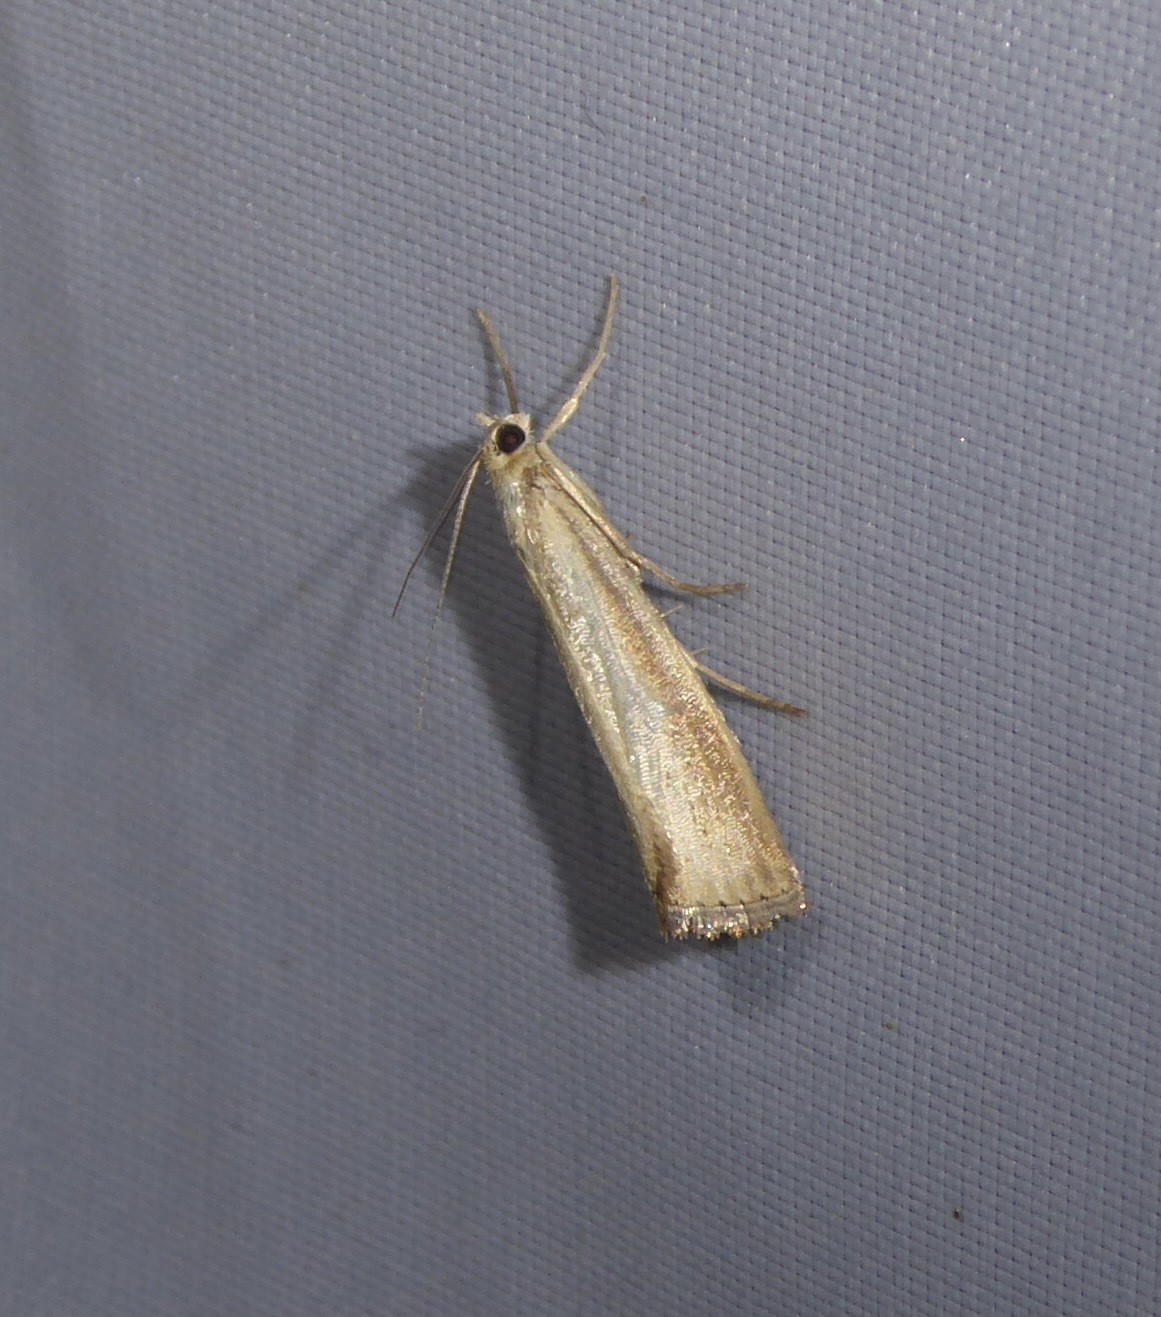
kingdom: Animalia
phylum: Arthropoda
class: Insecta
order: Lepidoptera
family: Crambidae
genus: Agriphila
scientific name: Agriphila straminella
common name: Straw grass-veneer
